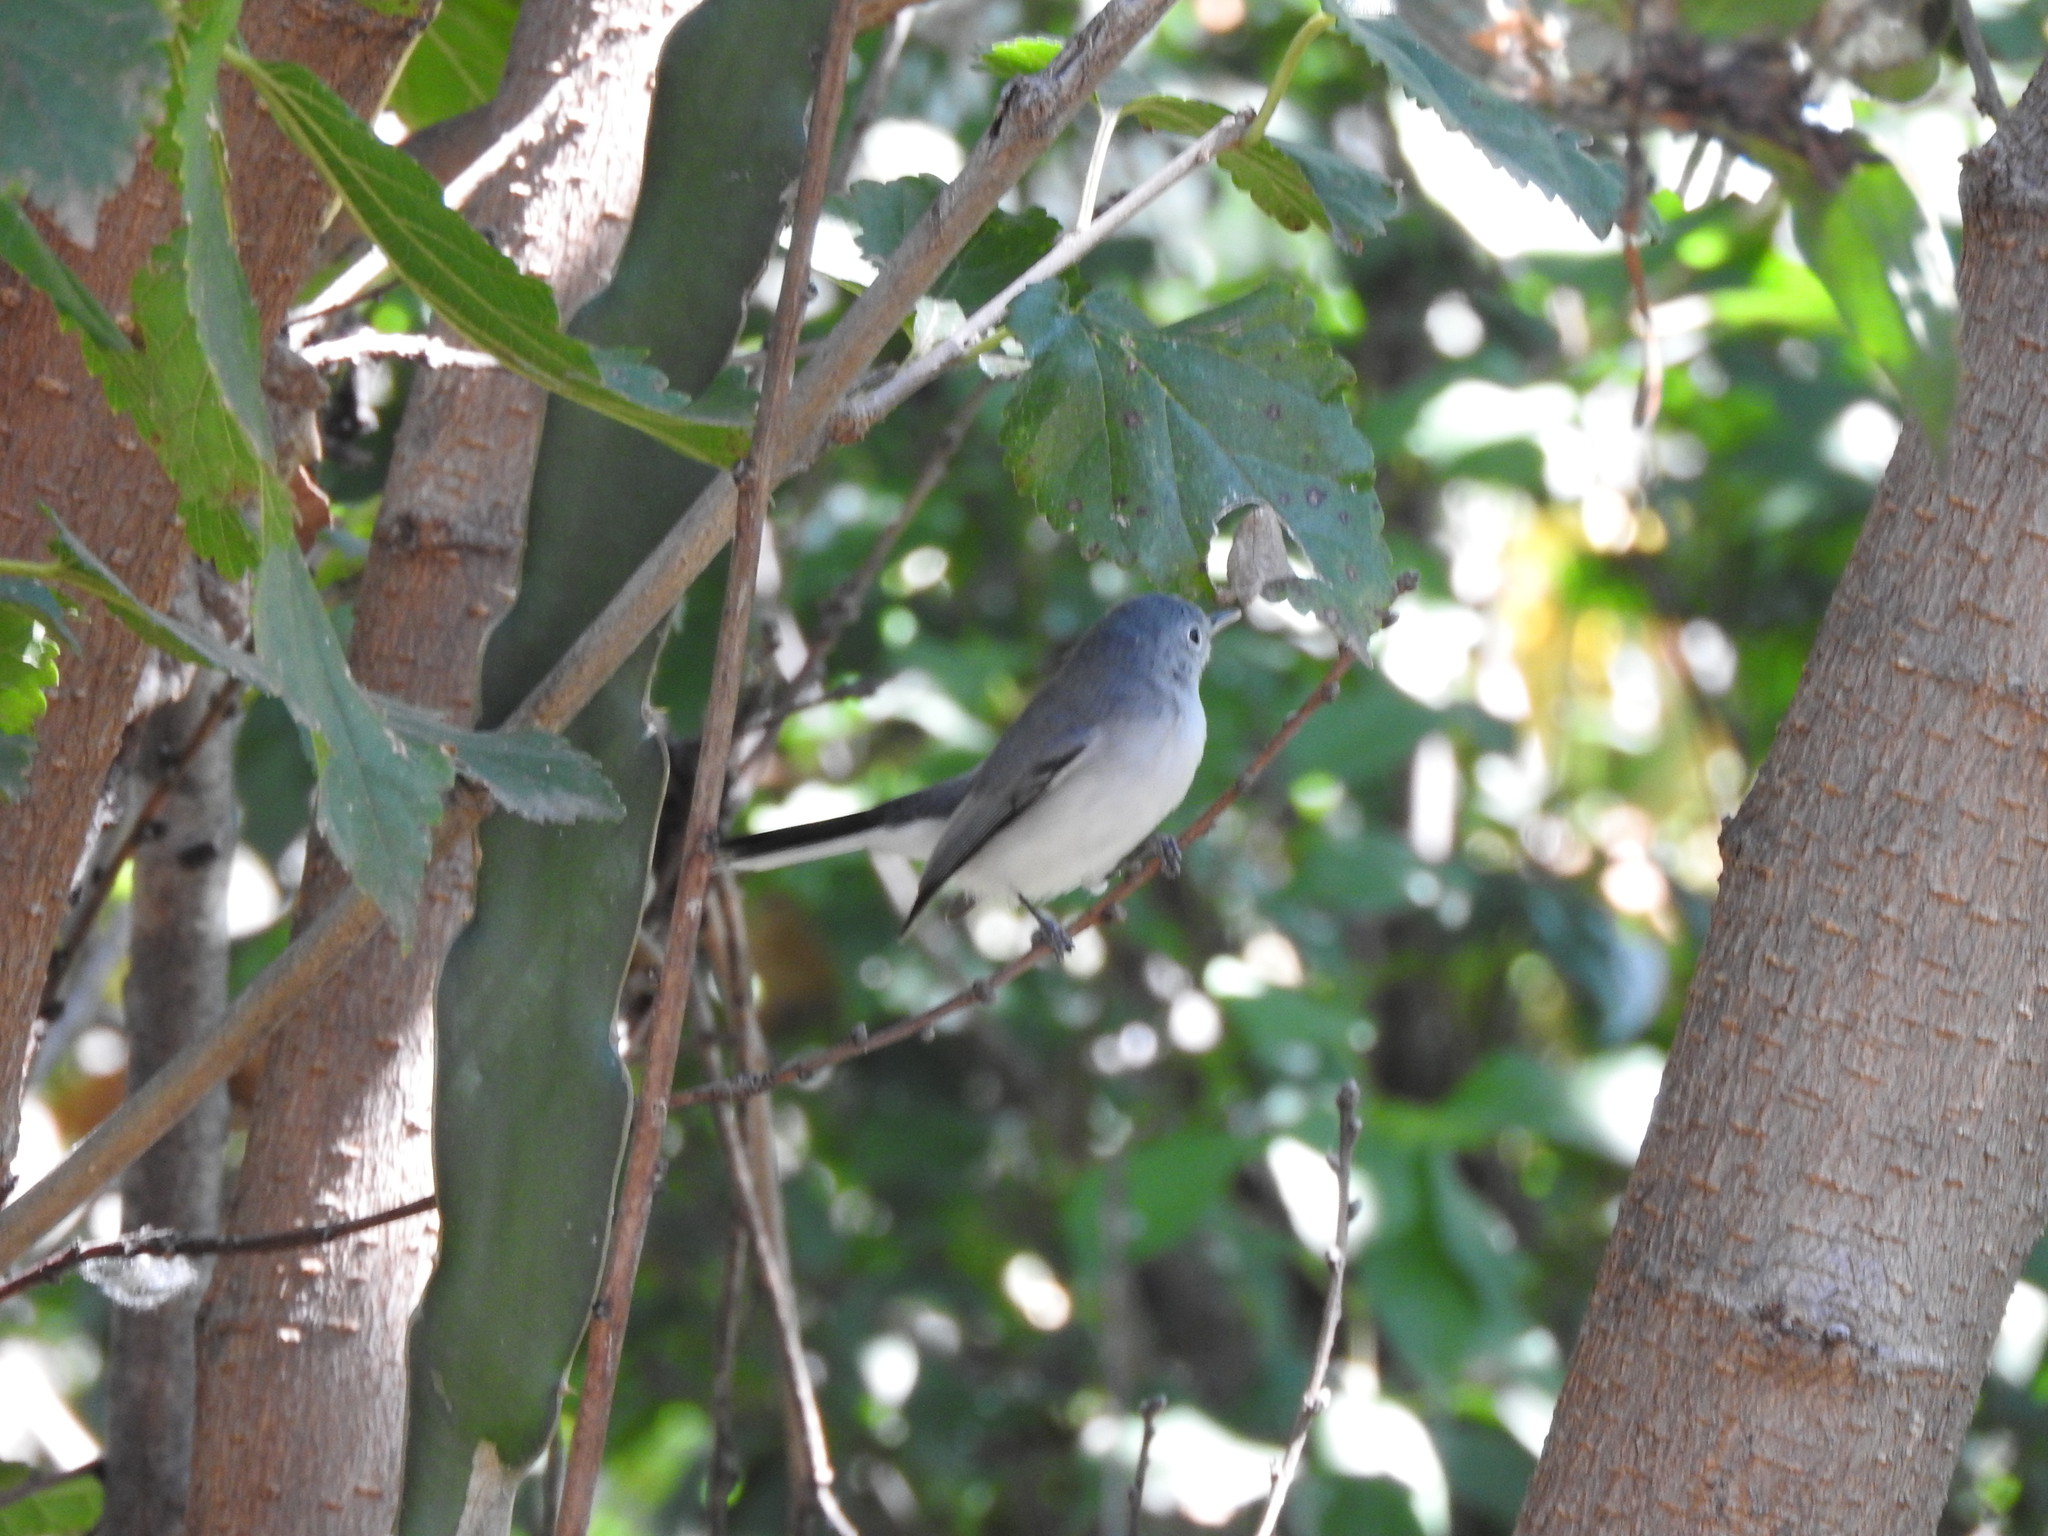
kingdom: Animalia
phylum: Chordata
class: Aves
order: Passeriformes
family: Polioptilidae
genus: Polioptila
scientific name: Polioptila caerulea
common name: Blue-gray gnatcatcher
